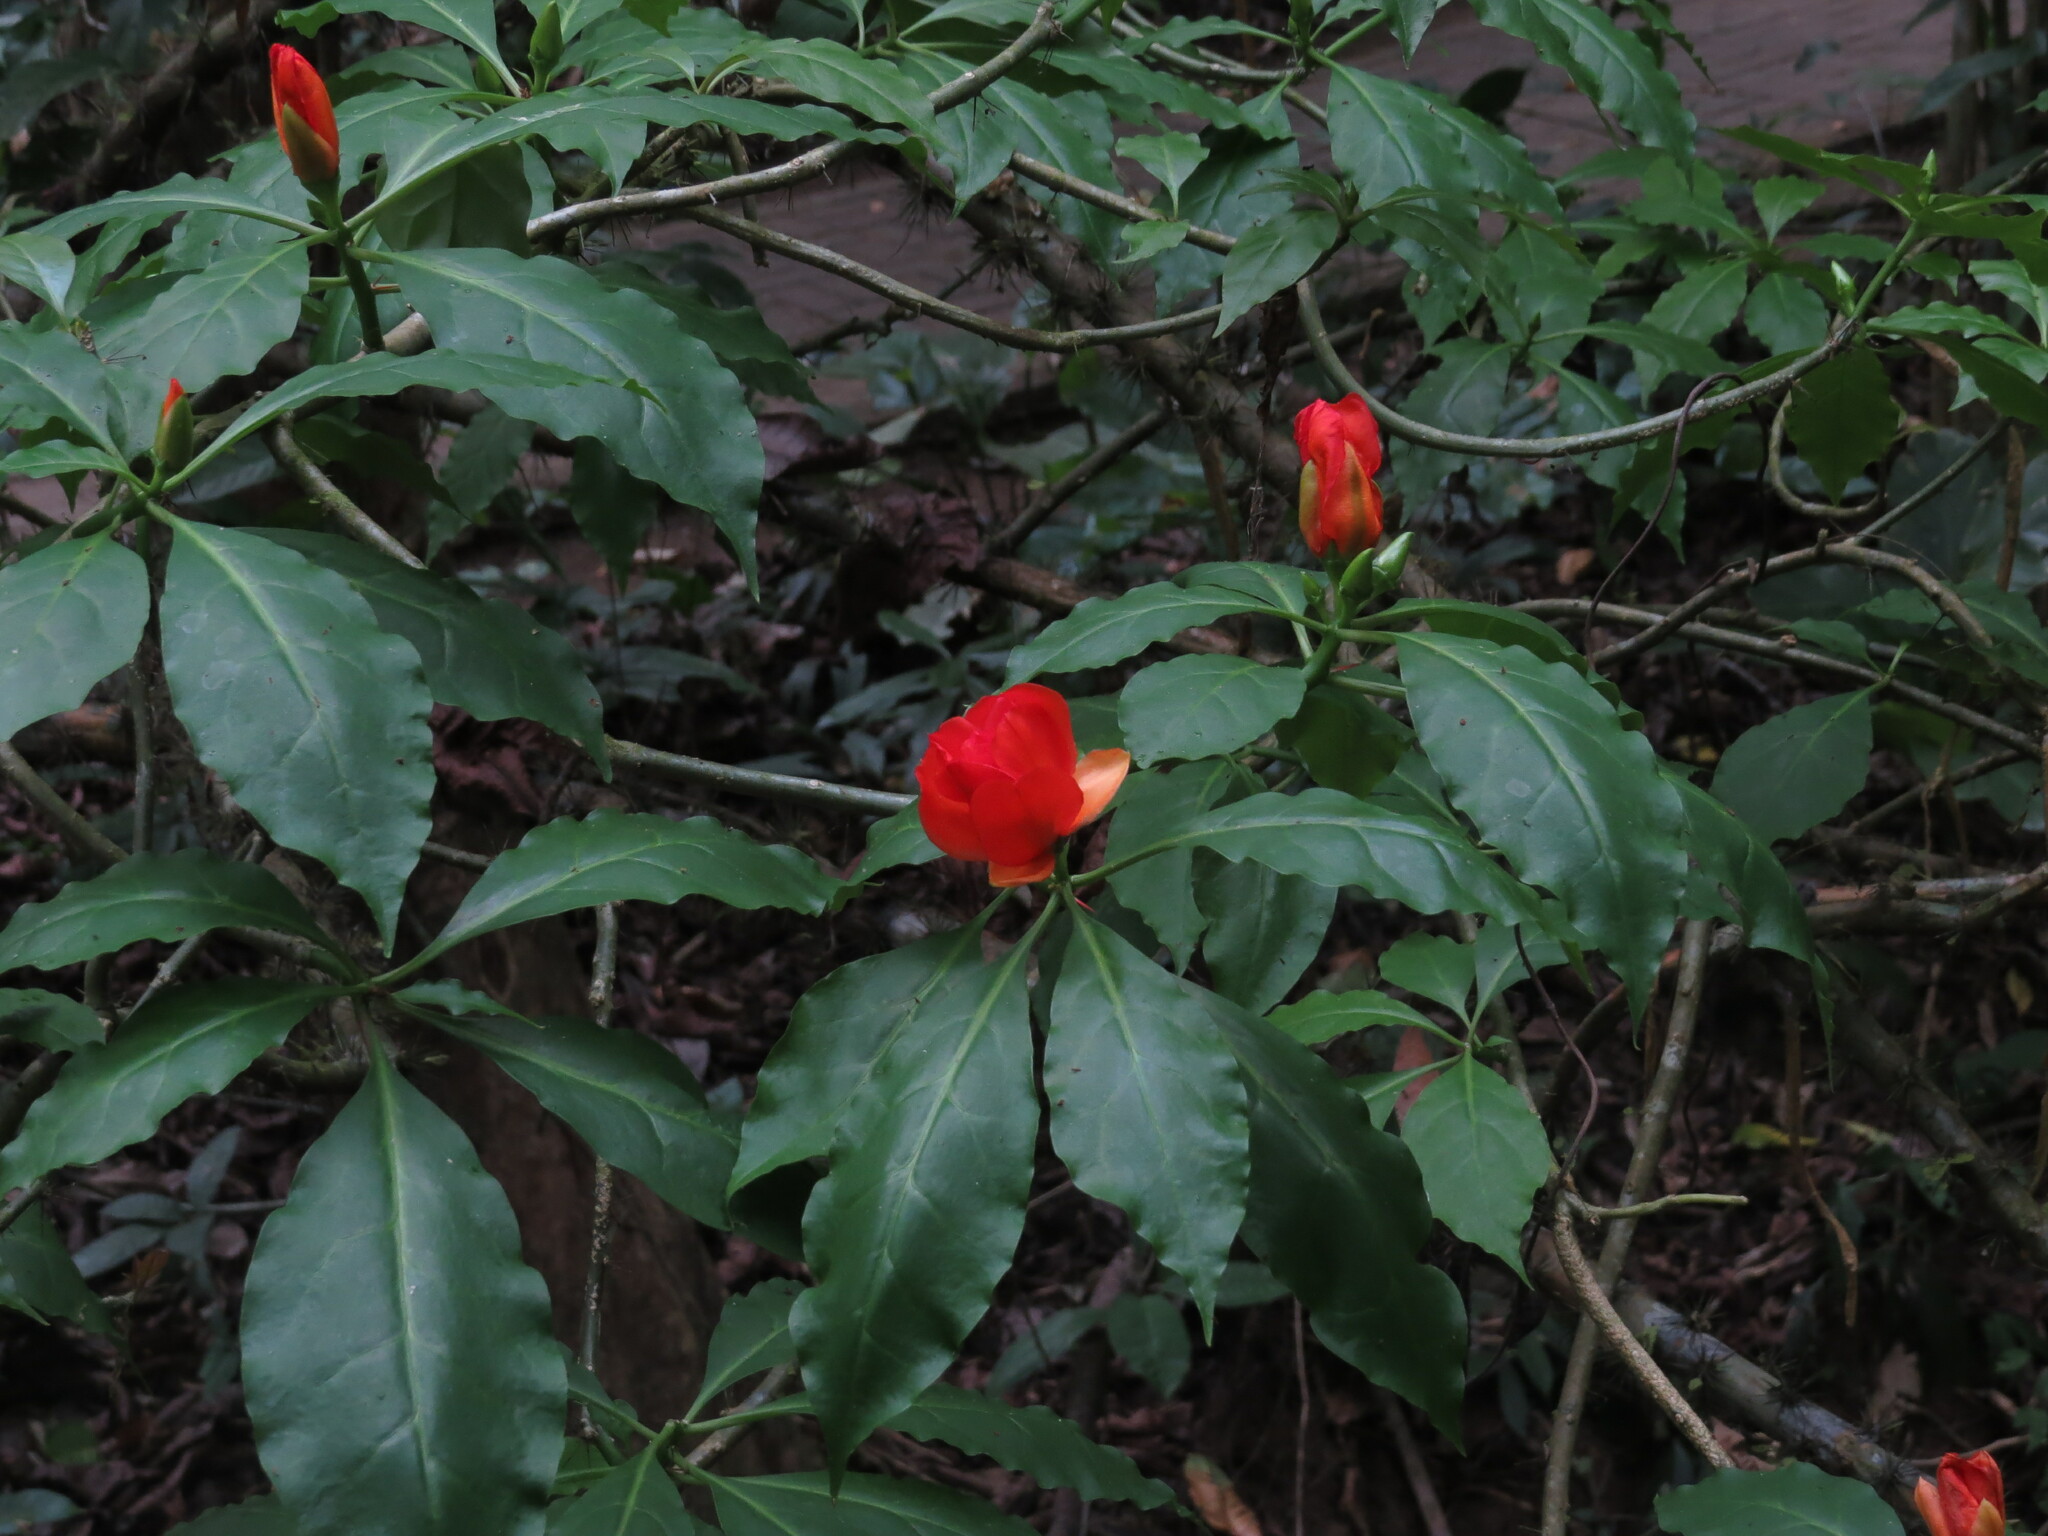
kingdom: Plantae
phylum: Tracheophyta
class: Magnoliopsida
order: Caryophyllales
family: Cactaceae
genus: Leuenbergeria
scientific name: Leuenbergeria bleo
